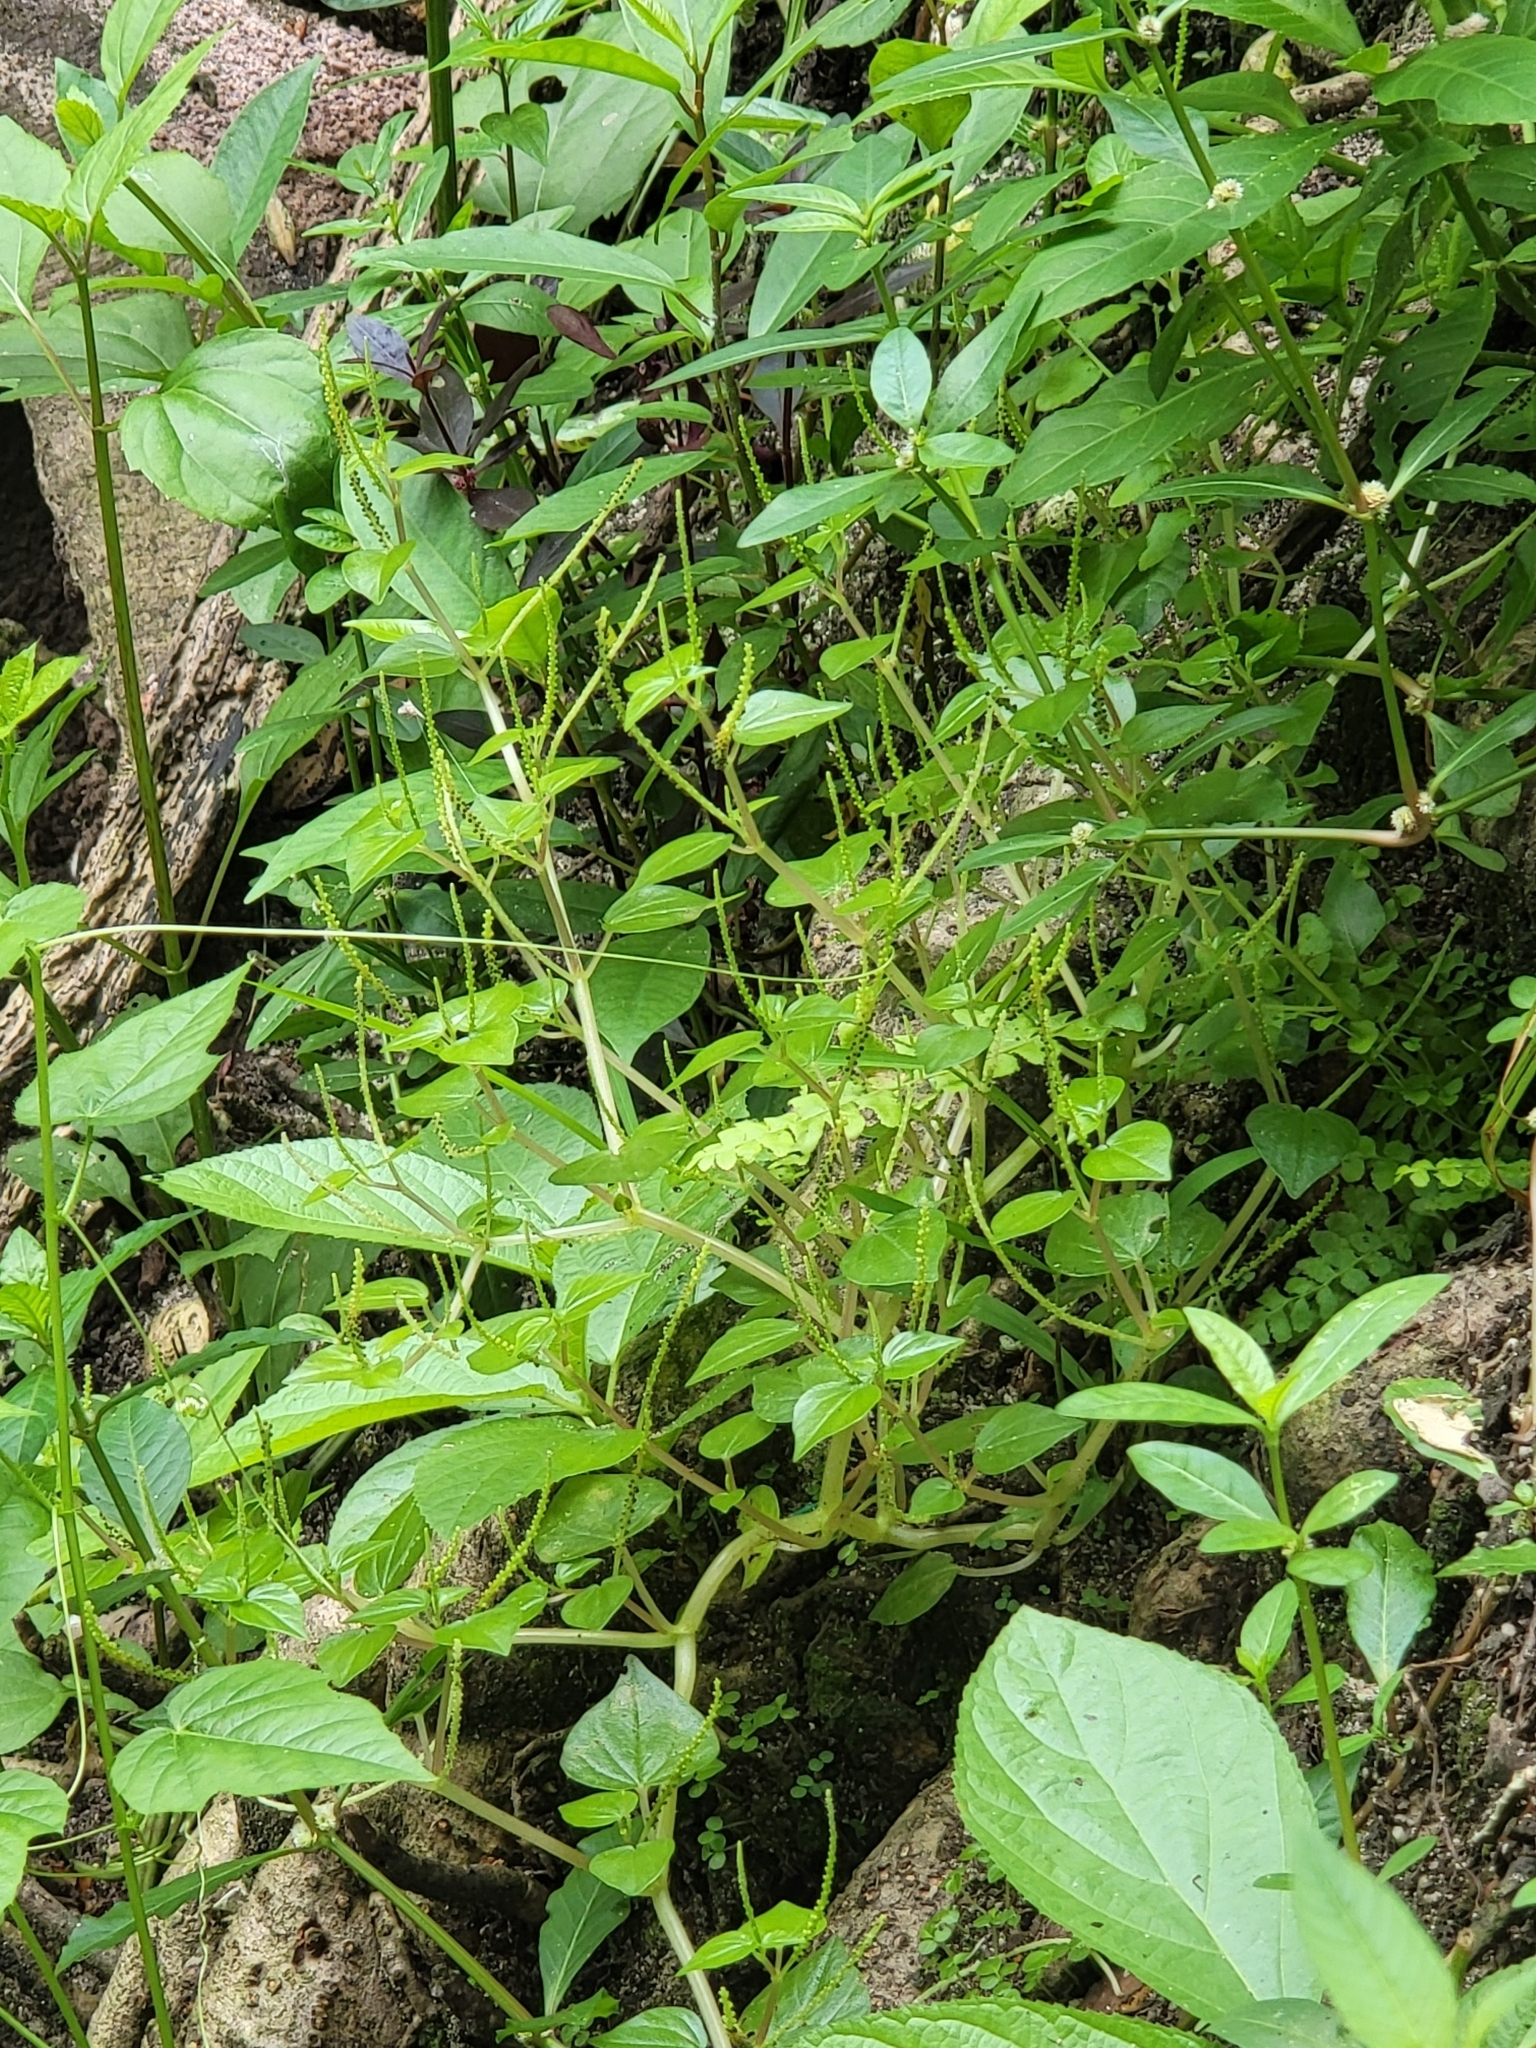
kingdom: Plantae
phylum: Tracheophyta
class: Magnoliopsida
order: Piperales
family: Piperaceae
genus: Peperomia
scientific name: Peperomia pellucida
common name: Man to man
